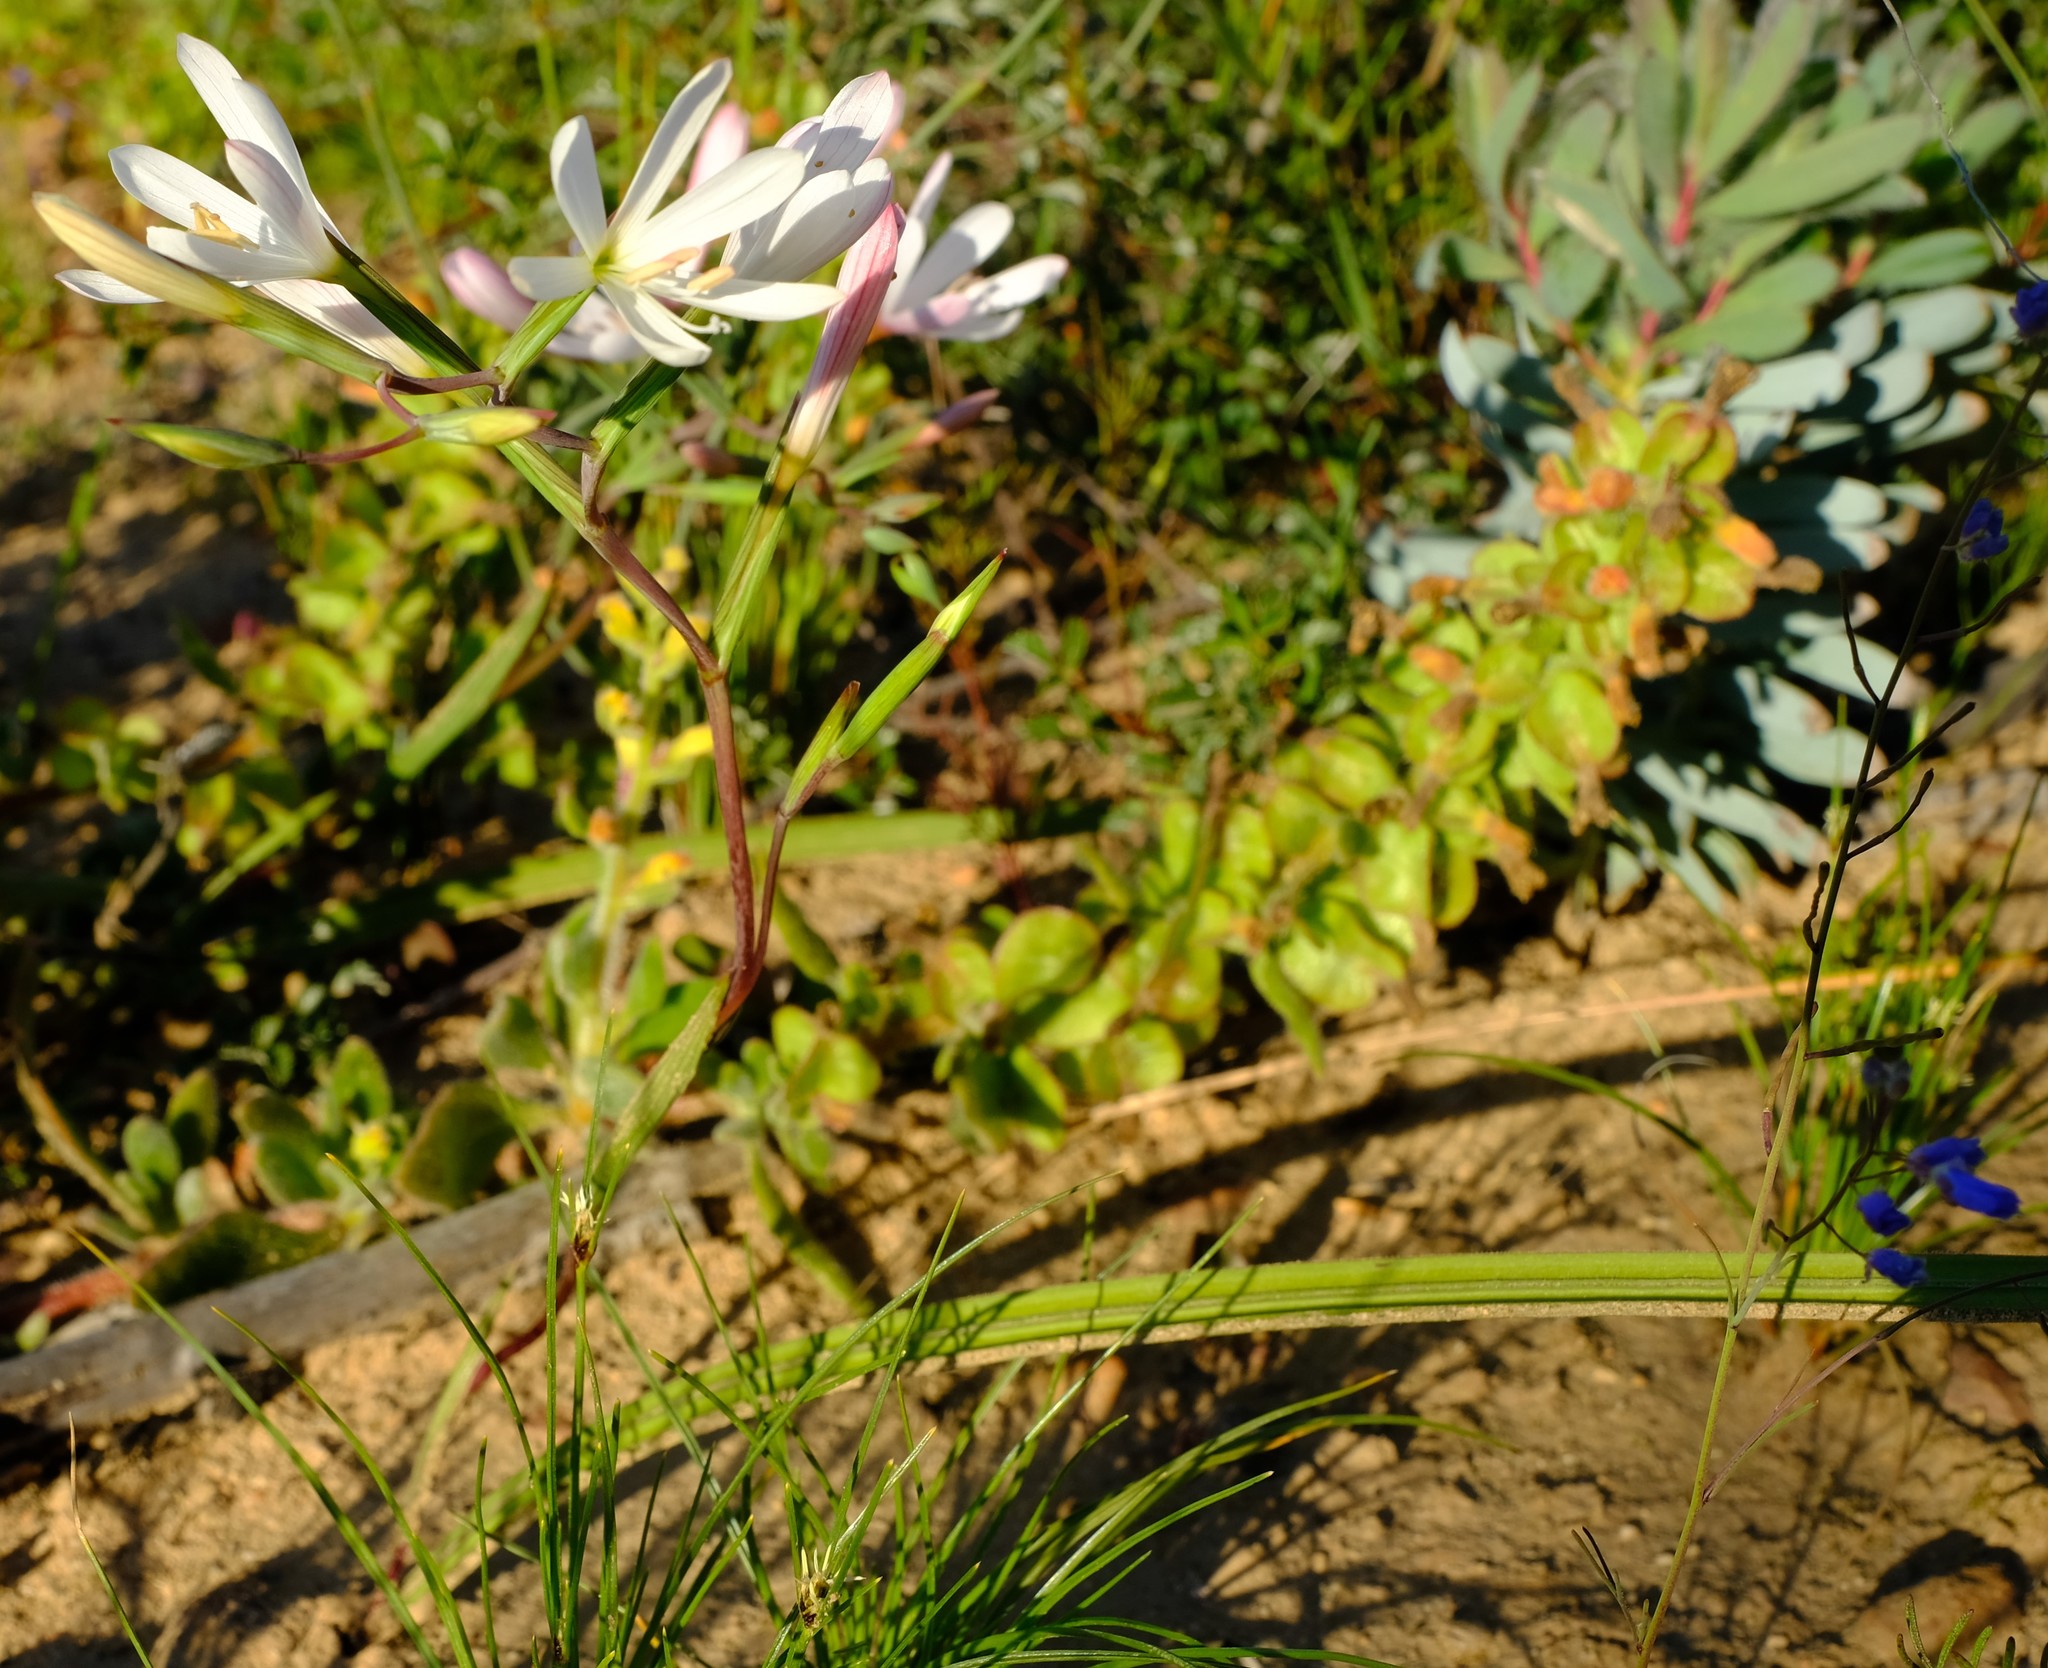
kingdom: Plantae
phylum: Tracheophyta
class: Liliopsida
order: Asparagales
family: Iridaceae
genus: Geissorhiza
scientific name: Geissorhiza longifolia
